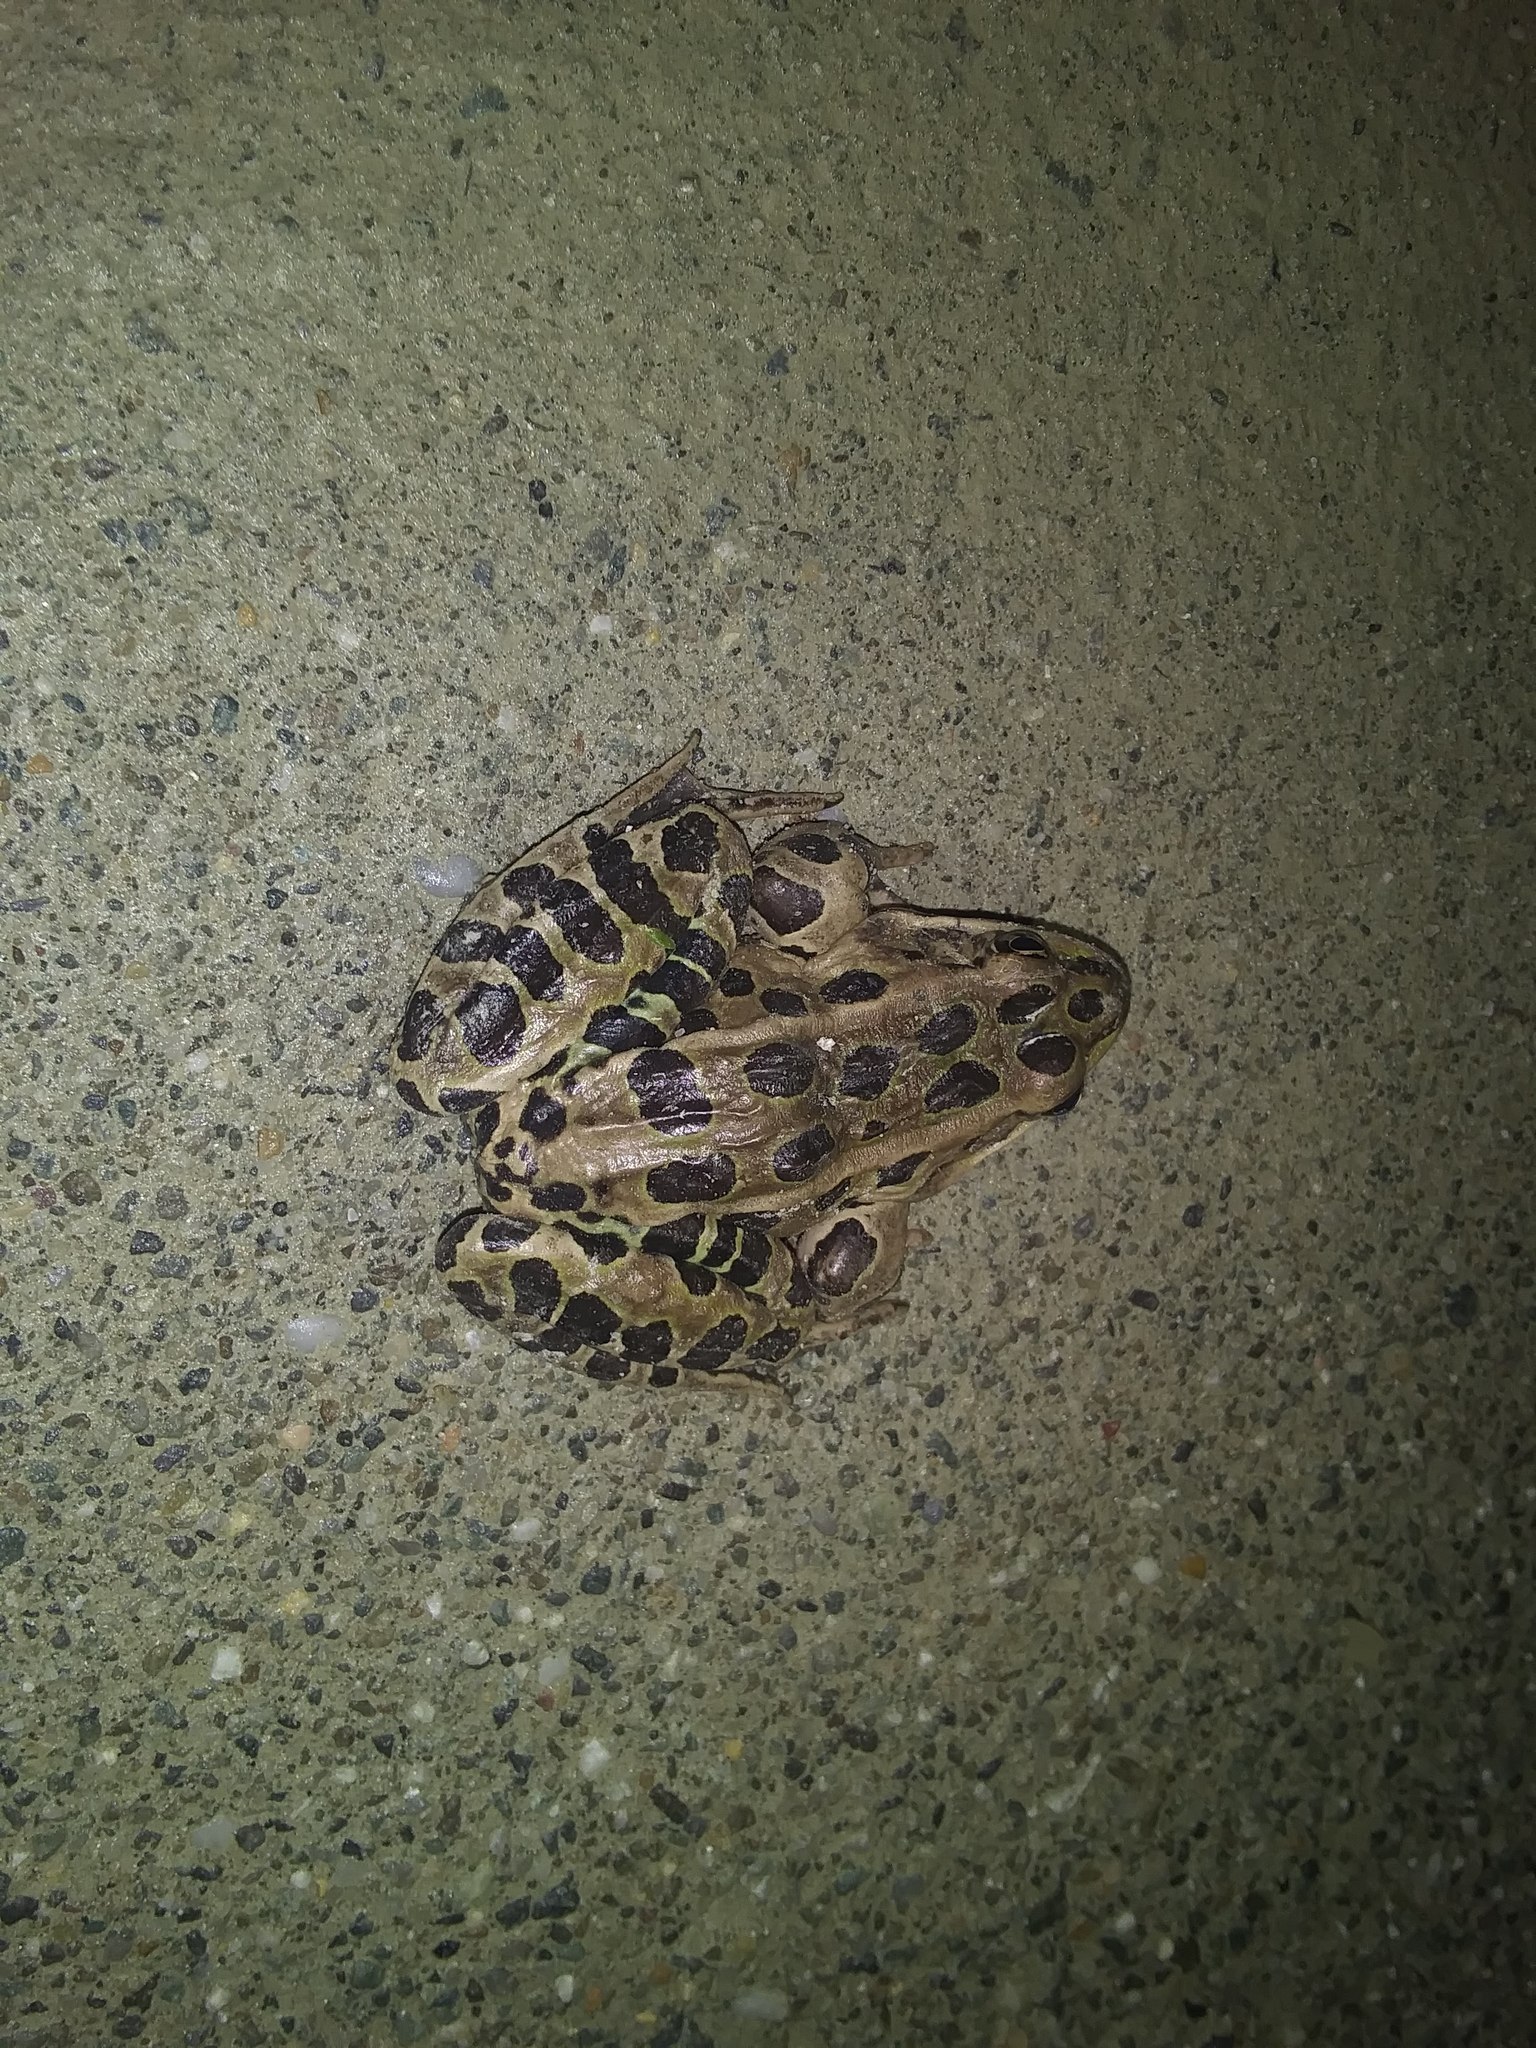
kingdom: Animalia
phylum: Chordata
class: Amphibia
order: Anura
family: Ranidae
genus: Lithobates
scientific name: Lithobates pipiens
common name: Northern leopard frog
